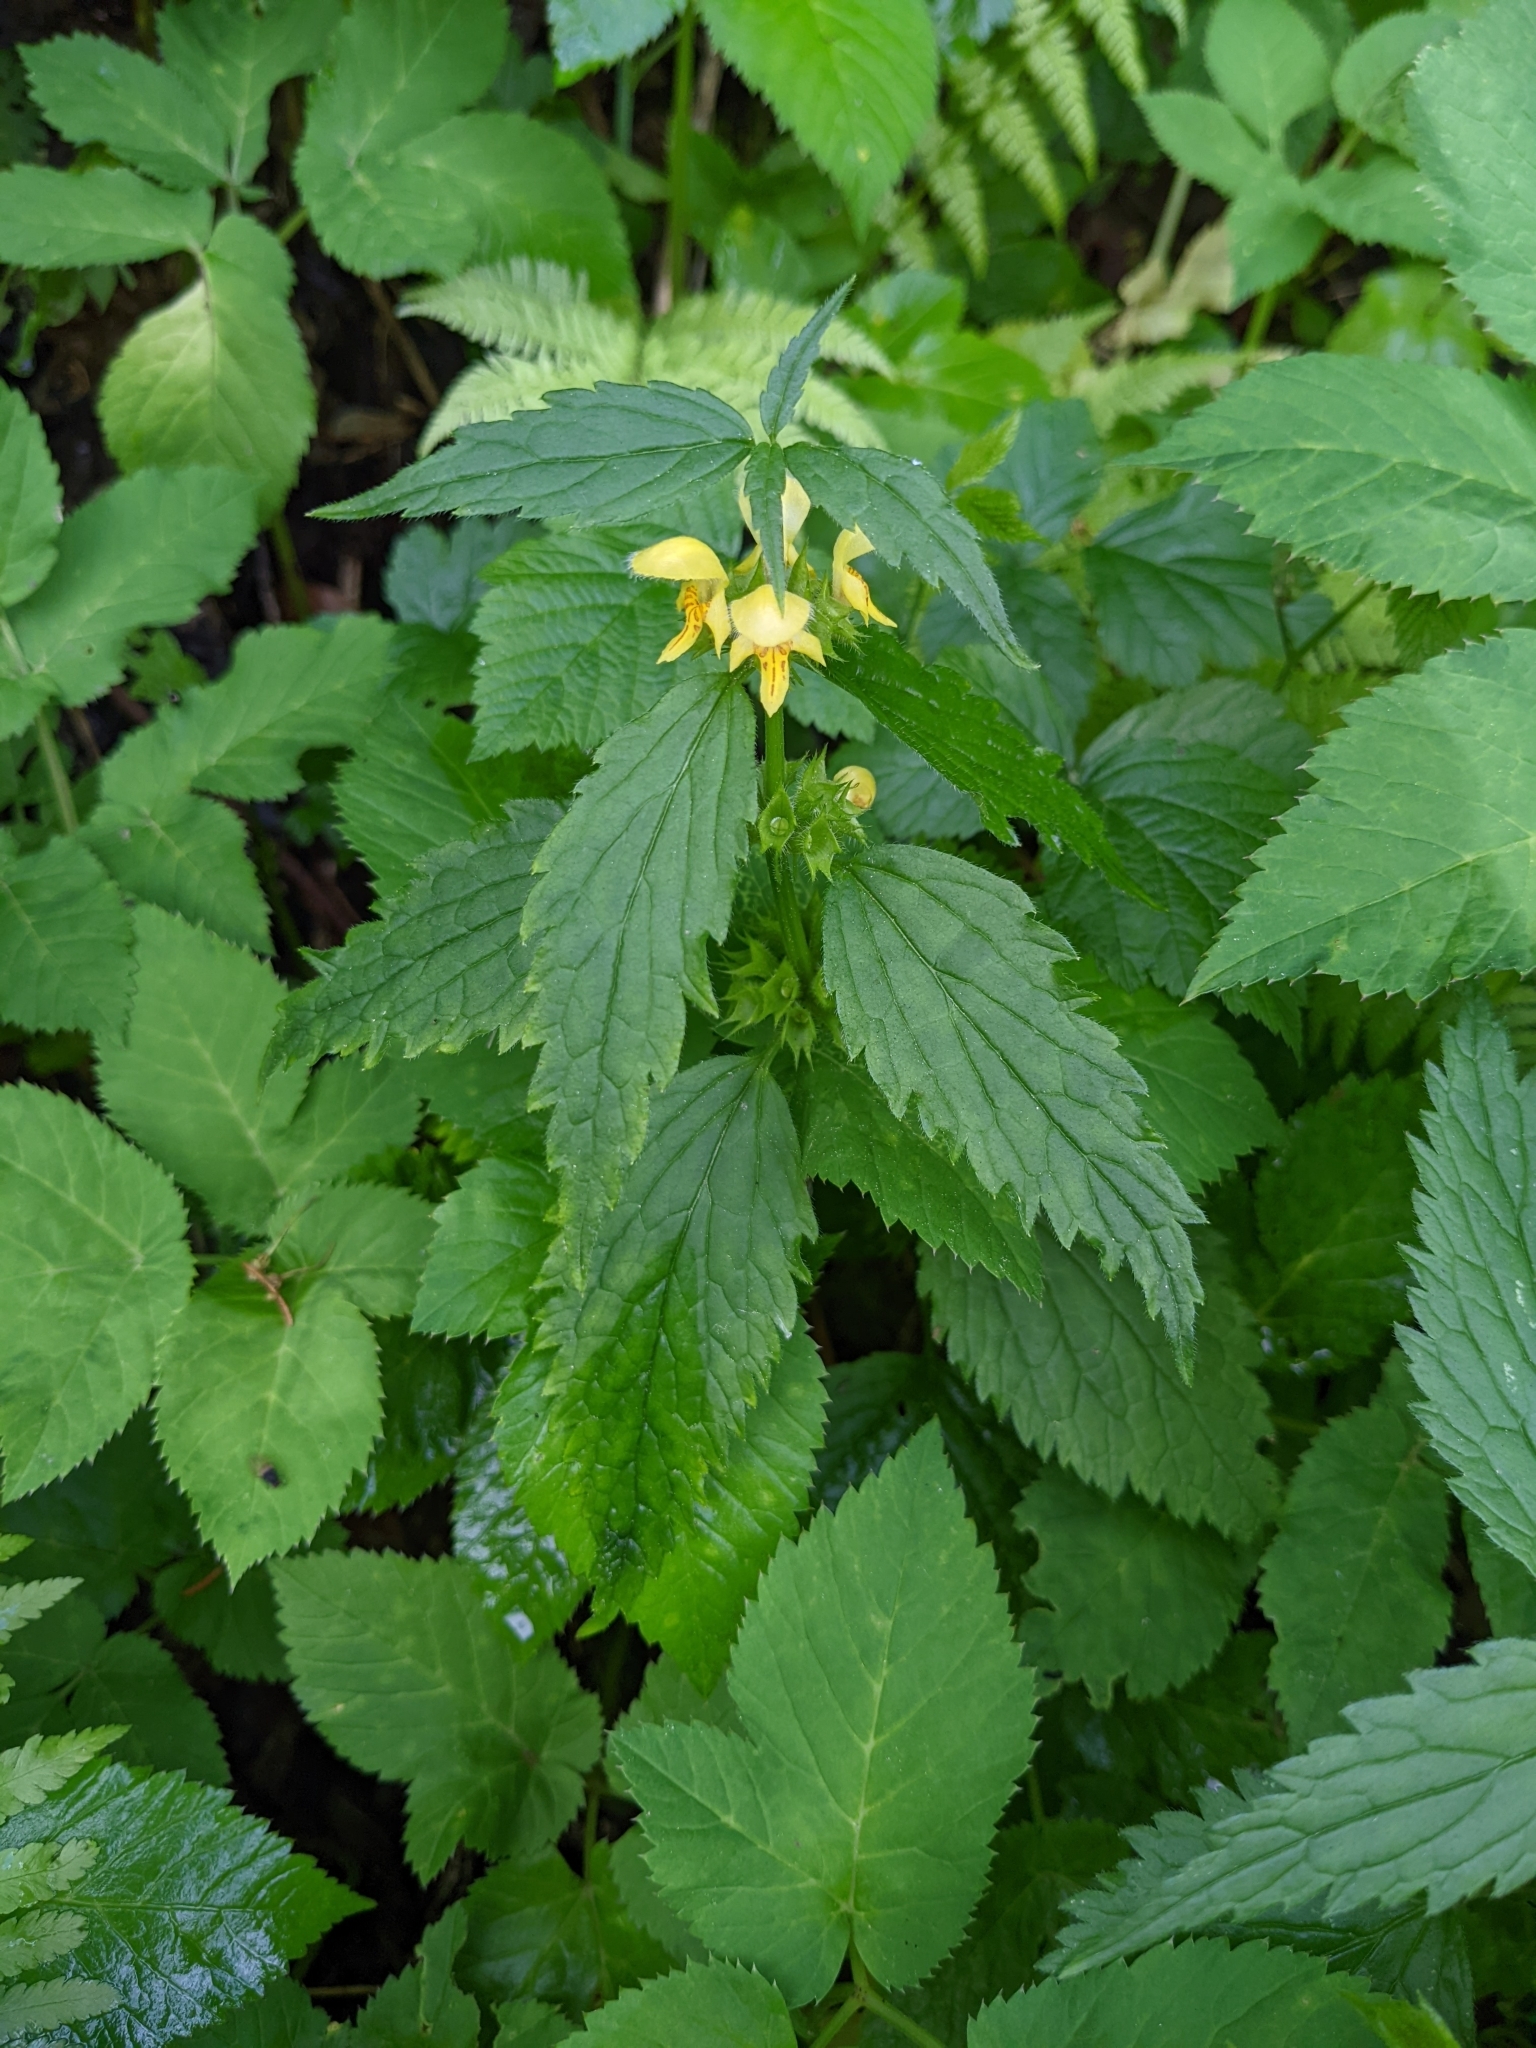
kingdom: Plantae
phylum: Tracheophyta
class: Magnoliopsida
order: Lamiales
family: Lamiaceae
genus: Lamium
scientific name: Lamium galeobdolon
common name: Yellow archangel
